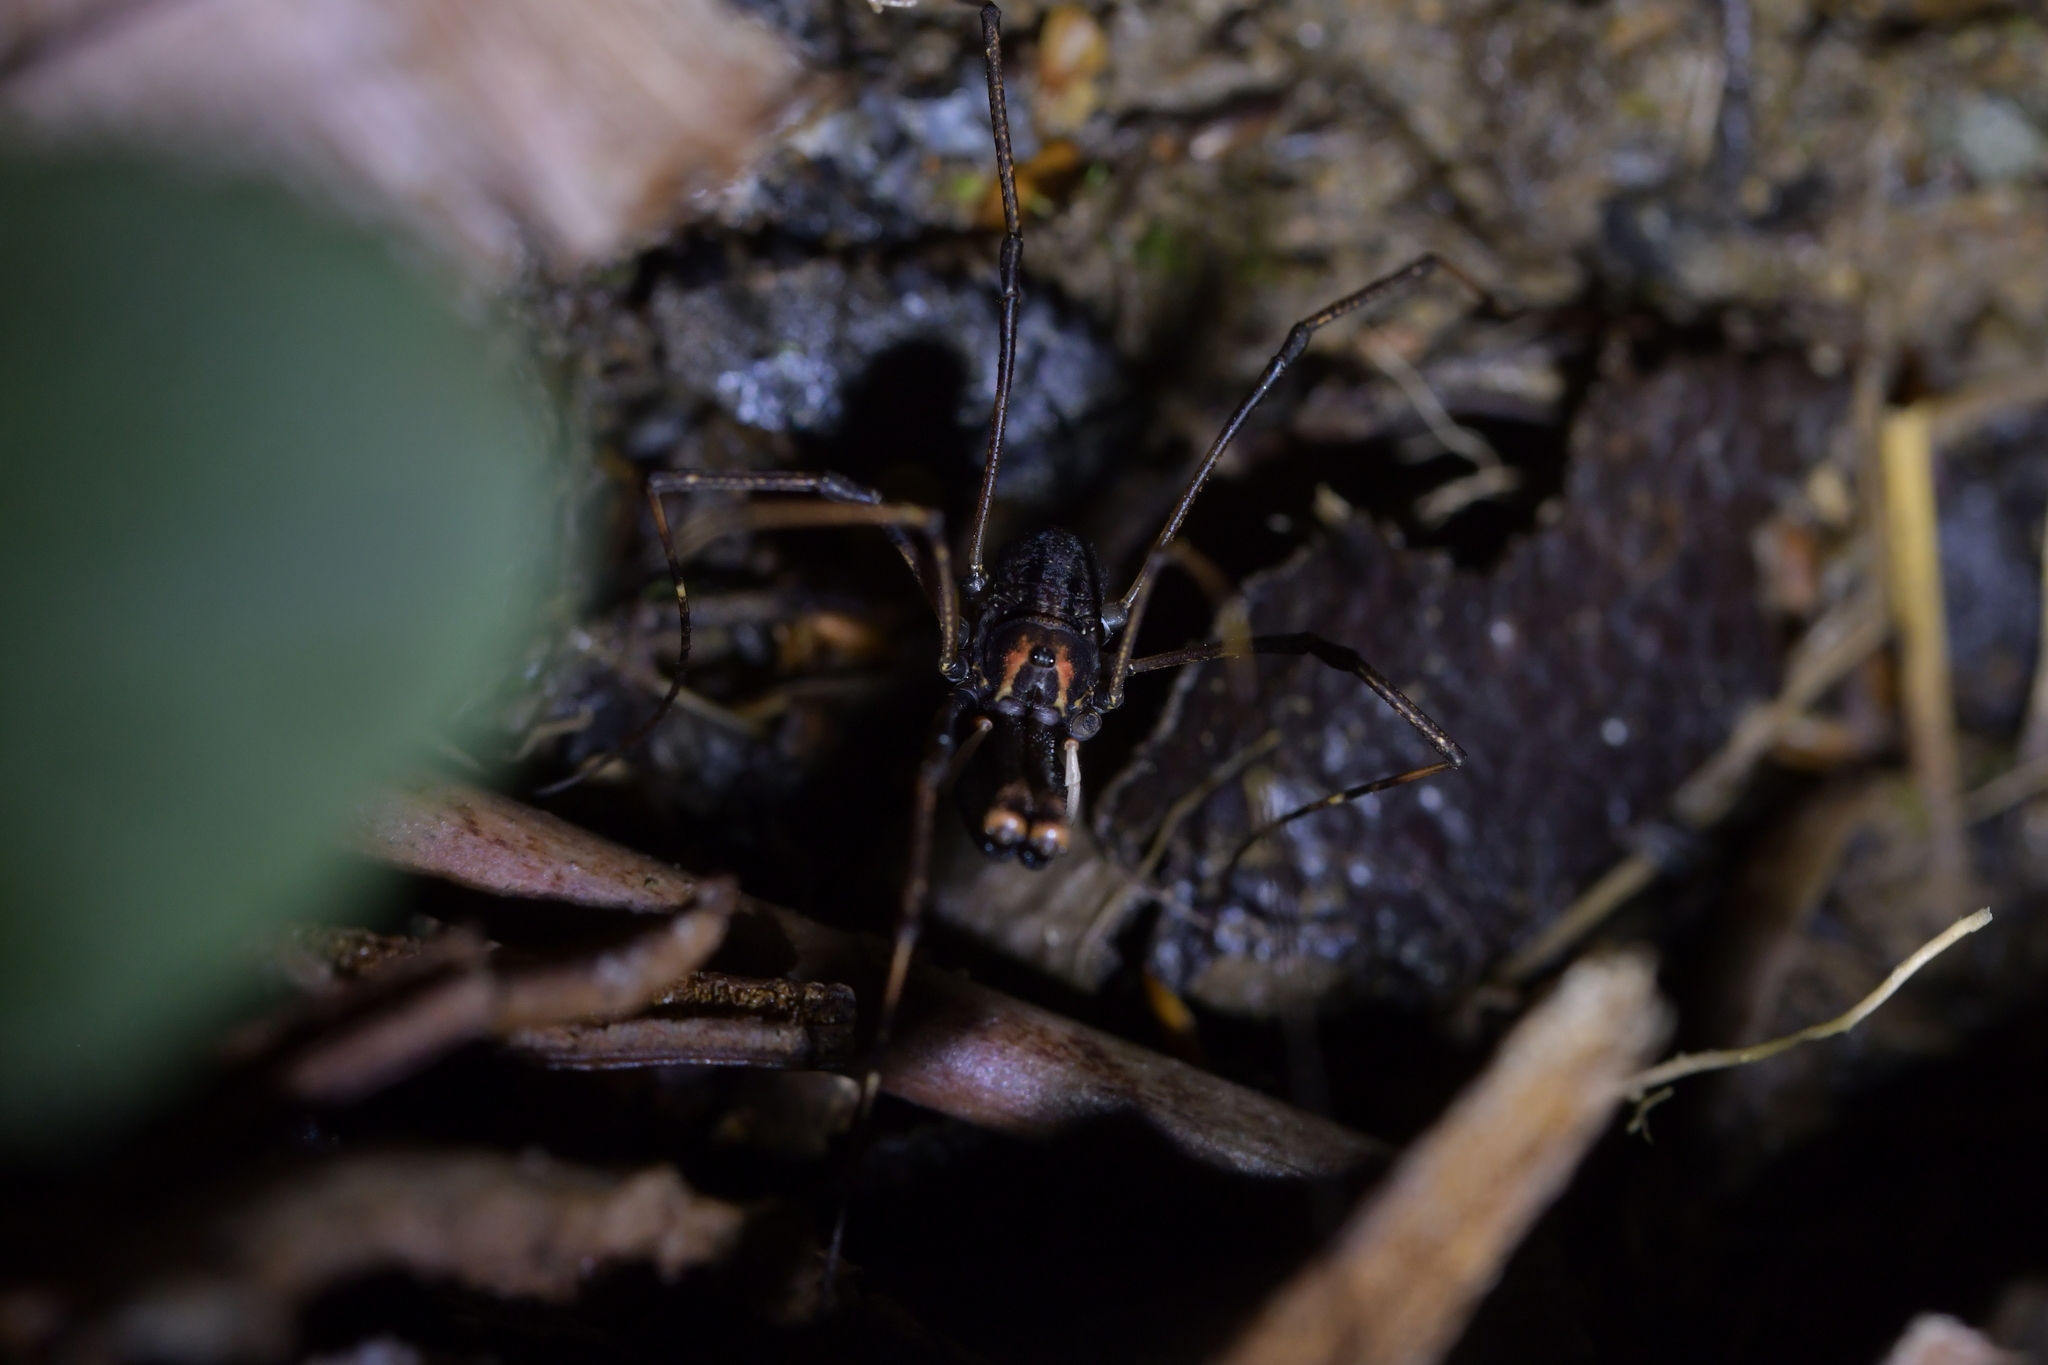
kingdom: Animalia
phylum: Arthropoda
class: Arachnida
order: Opiliones
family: Neopilionidae
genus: Forsteropsalis
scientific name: Forsteropsalis inconstans
